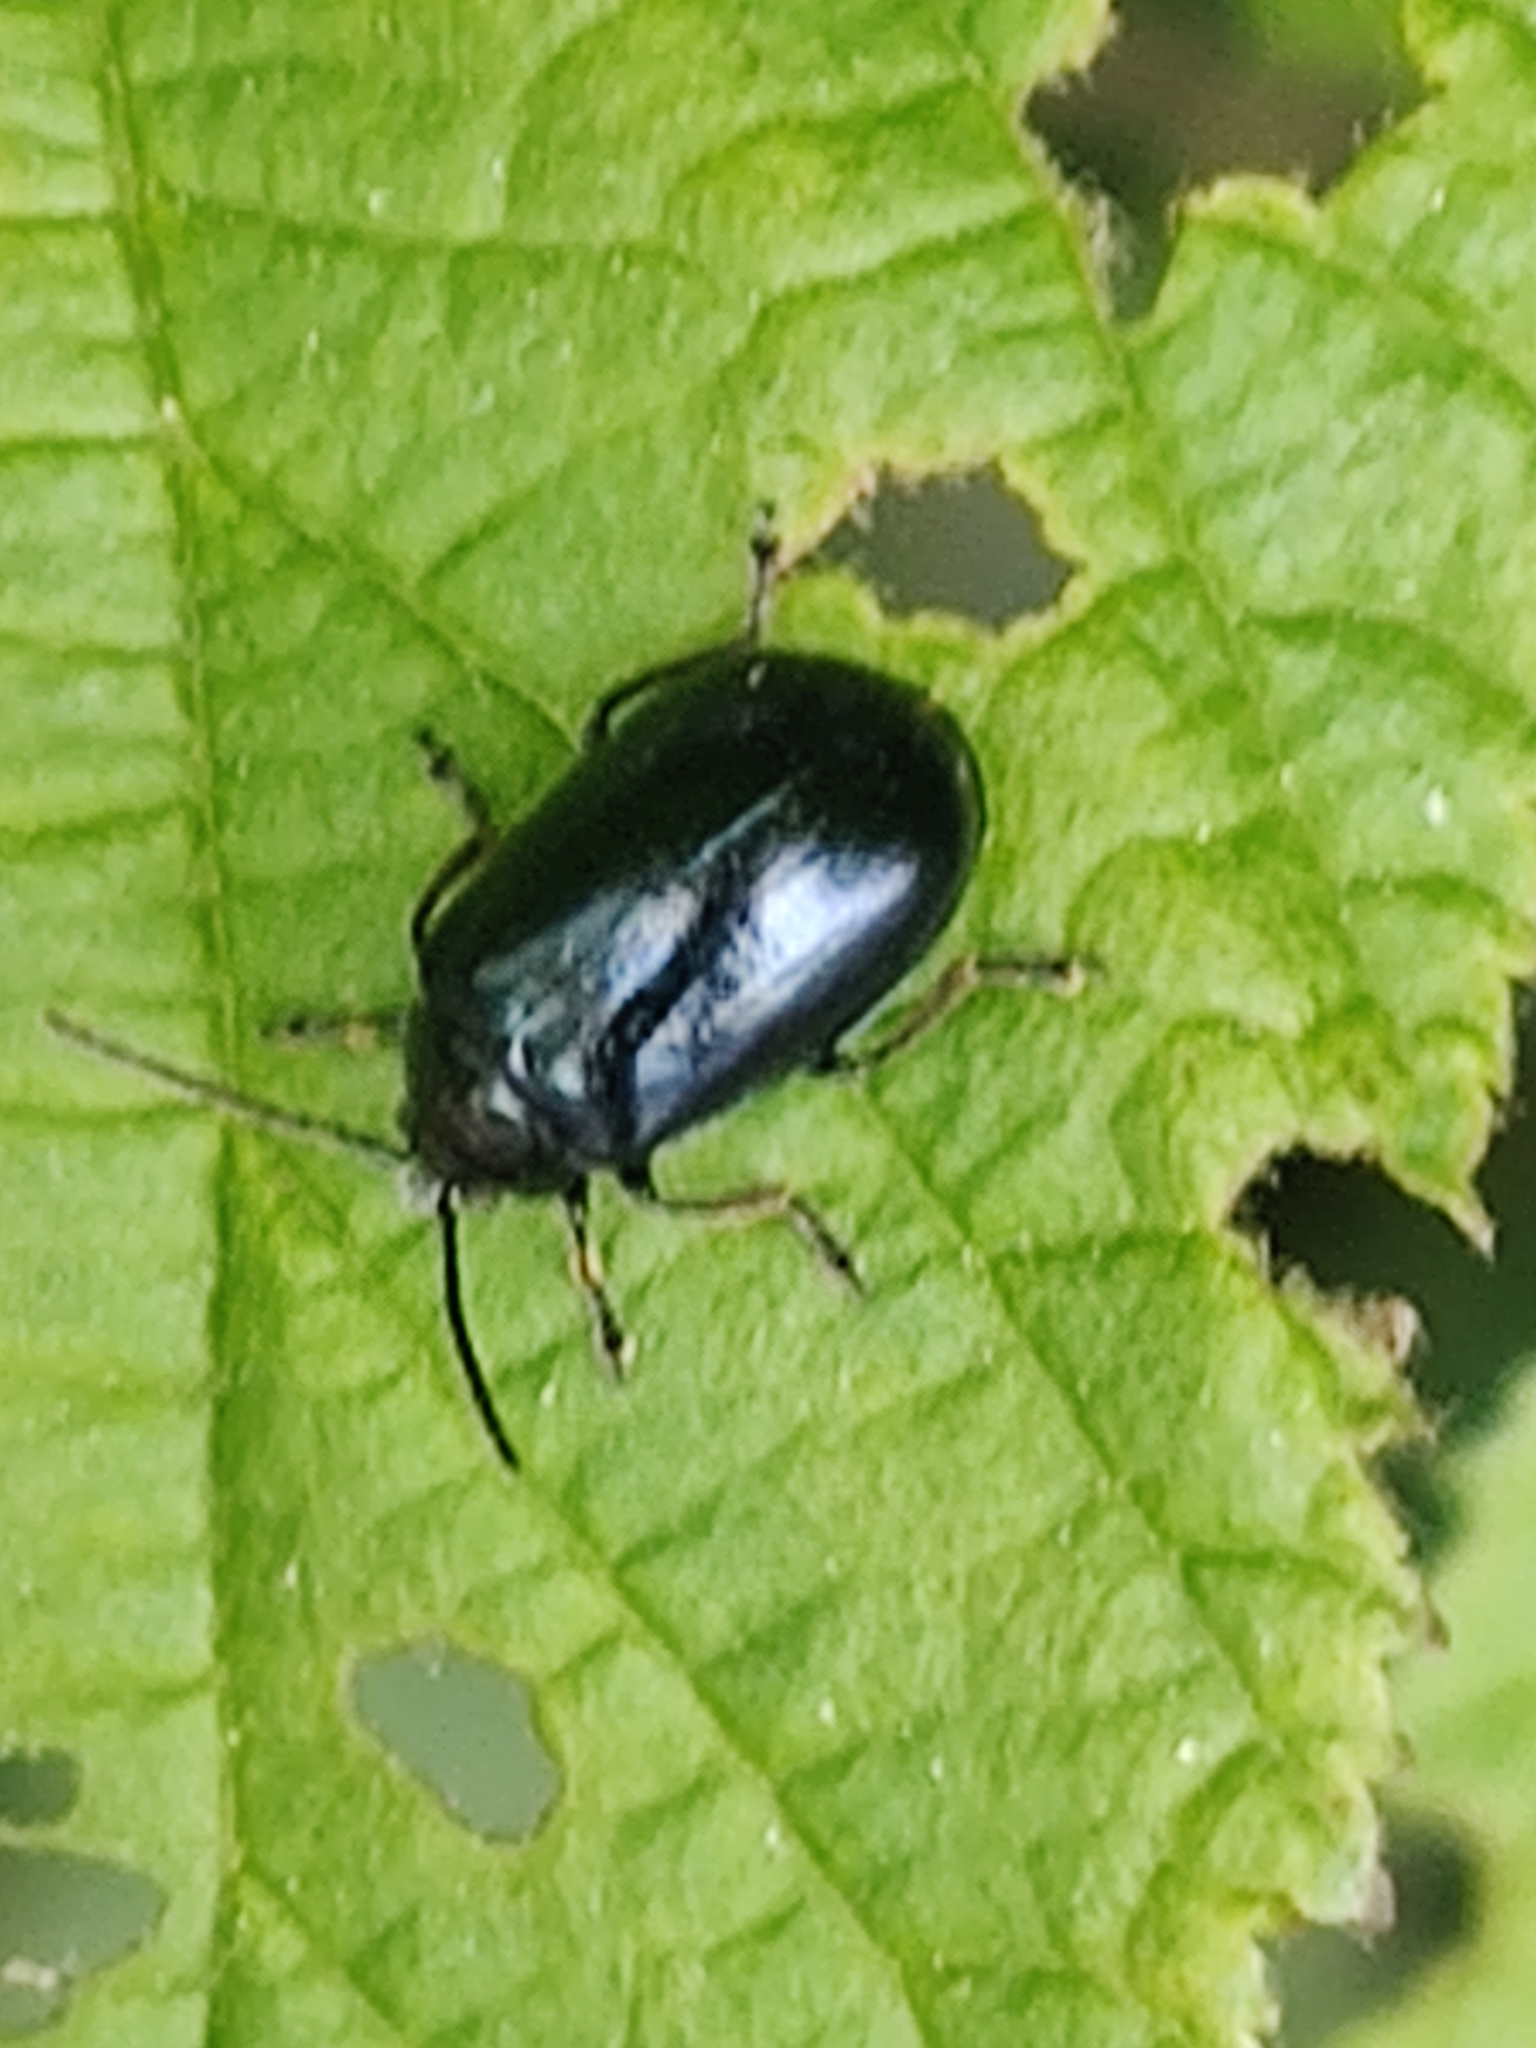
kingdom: Animalia
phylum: Arthropoda
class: Insecta
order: Coleoptera
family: Chrysomelidae
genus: Agelastica
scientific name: Agelastica alni
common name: Alder leaf beetle
